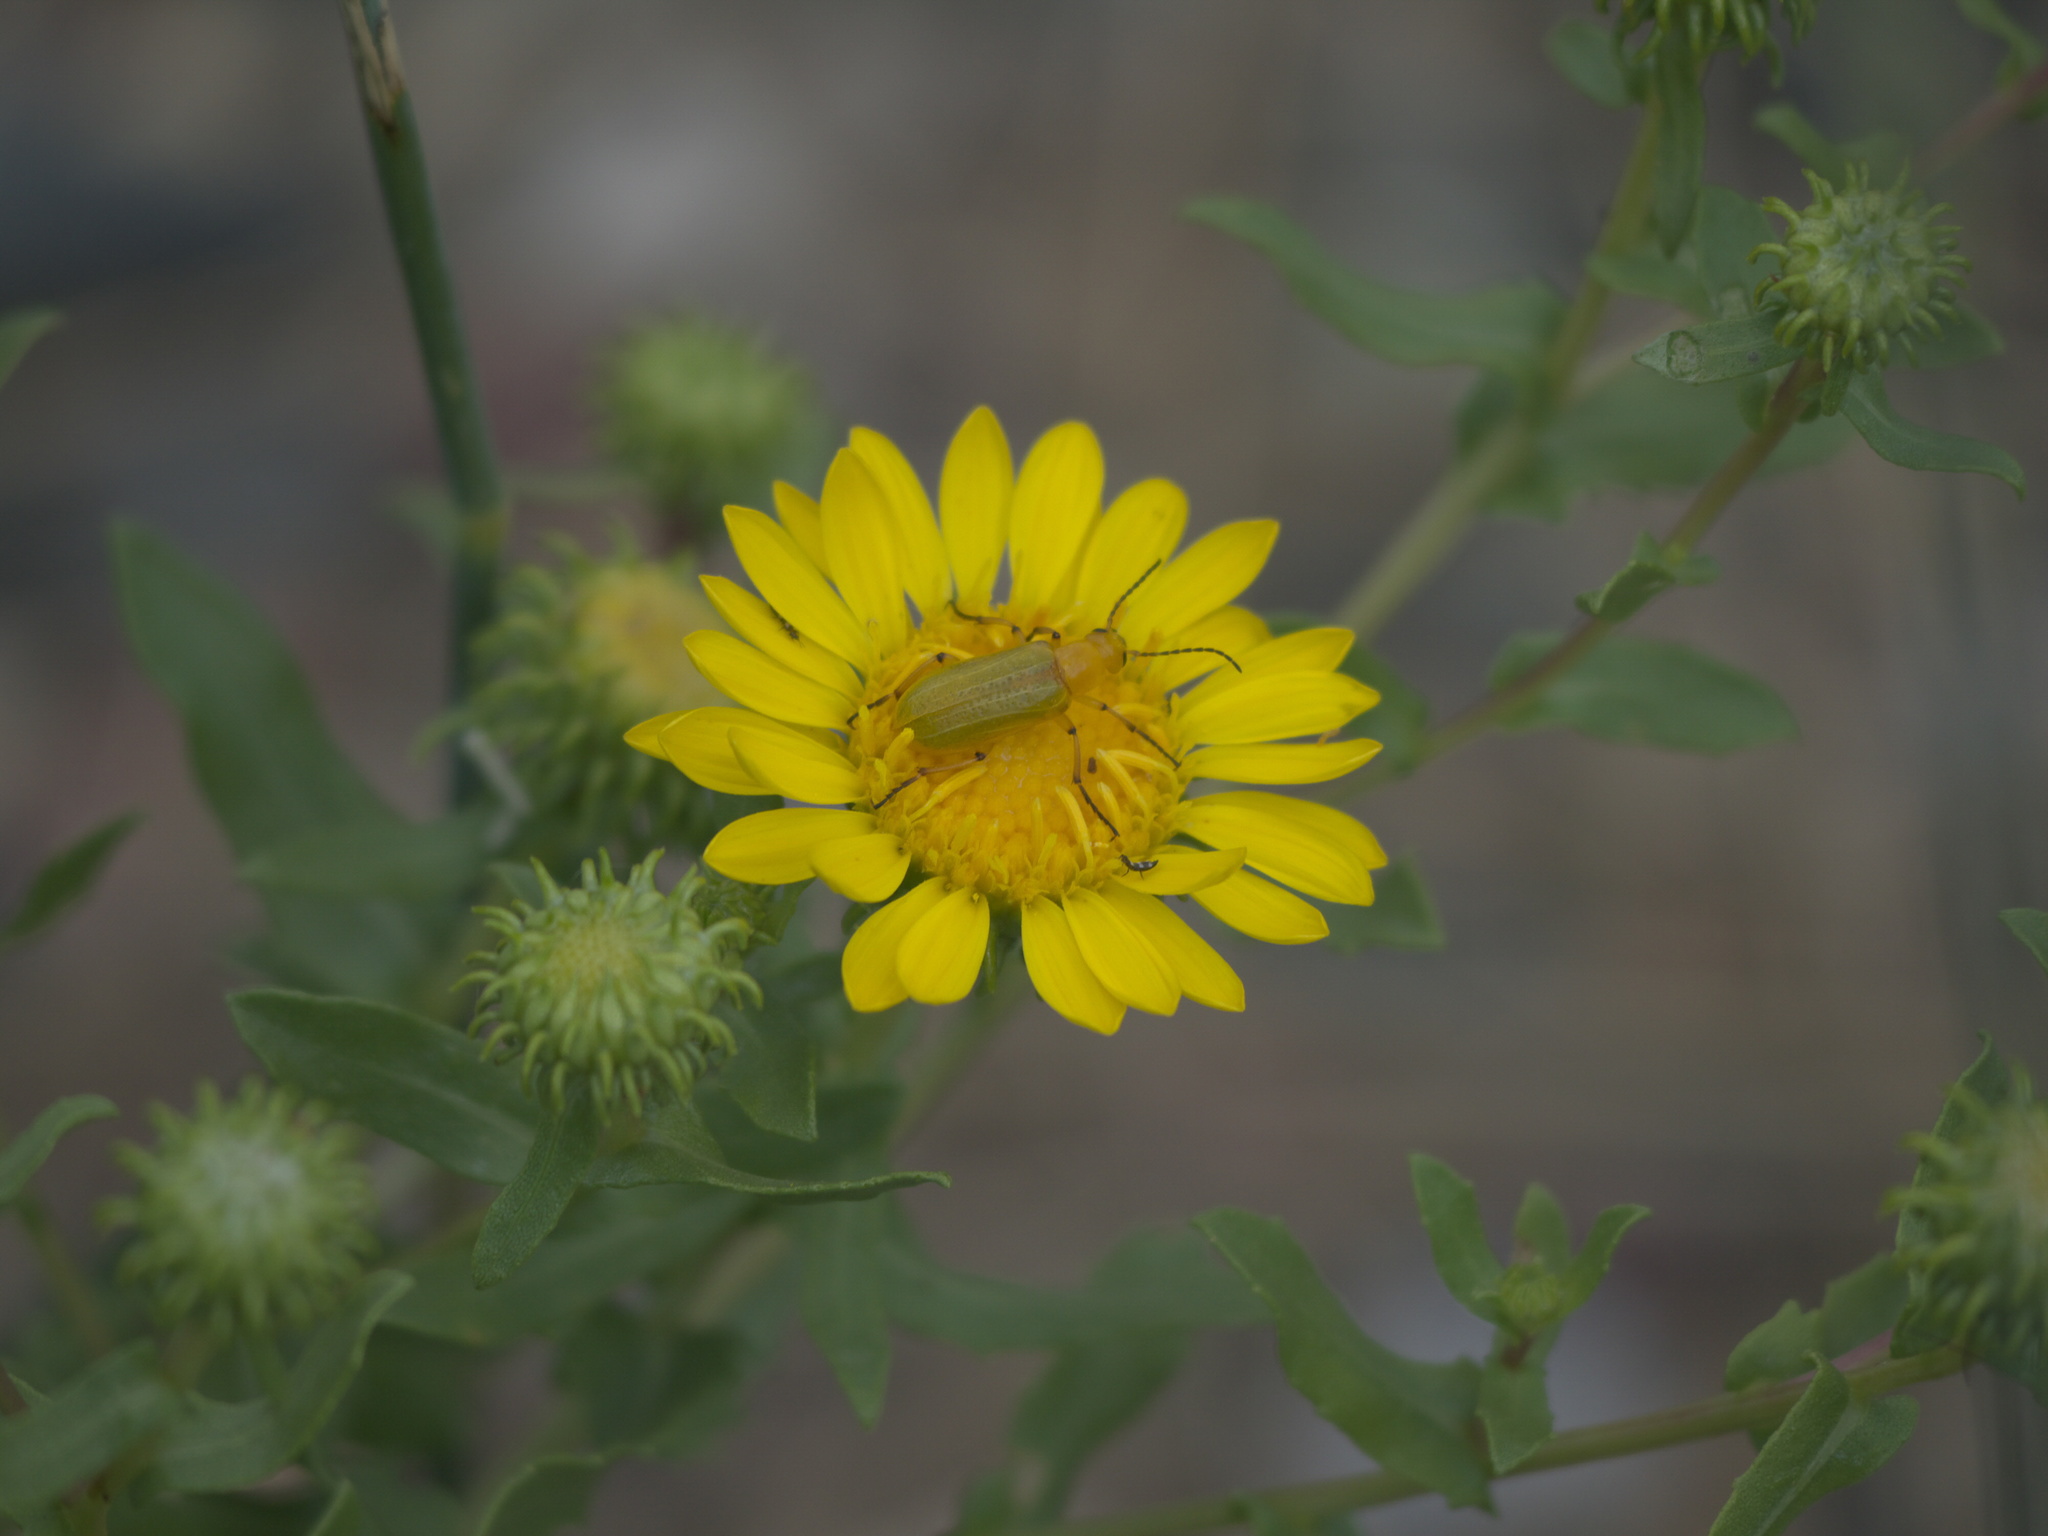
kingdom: Plantae
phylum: Tracheophyta
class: Magnoliopsida
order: Asterales
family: Asteraceae
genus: Grindelia
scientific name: Grindelia squarrosa
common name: Curly-cup gumweed
